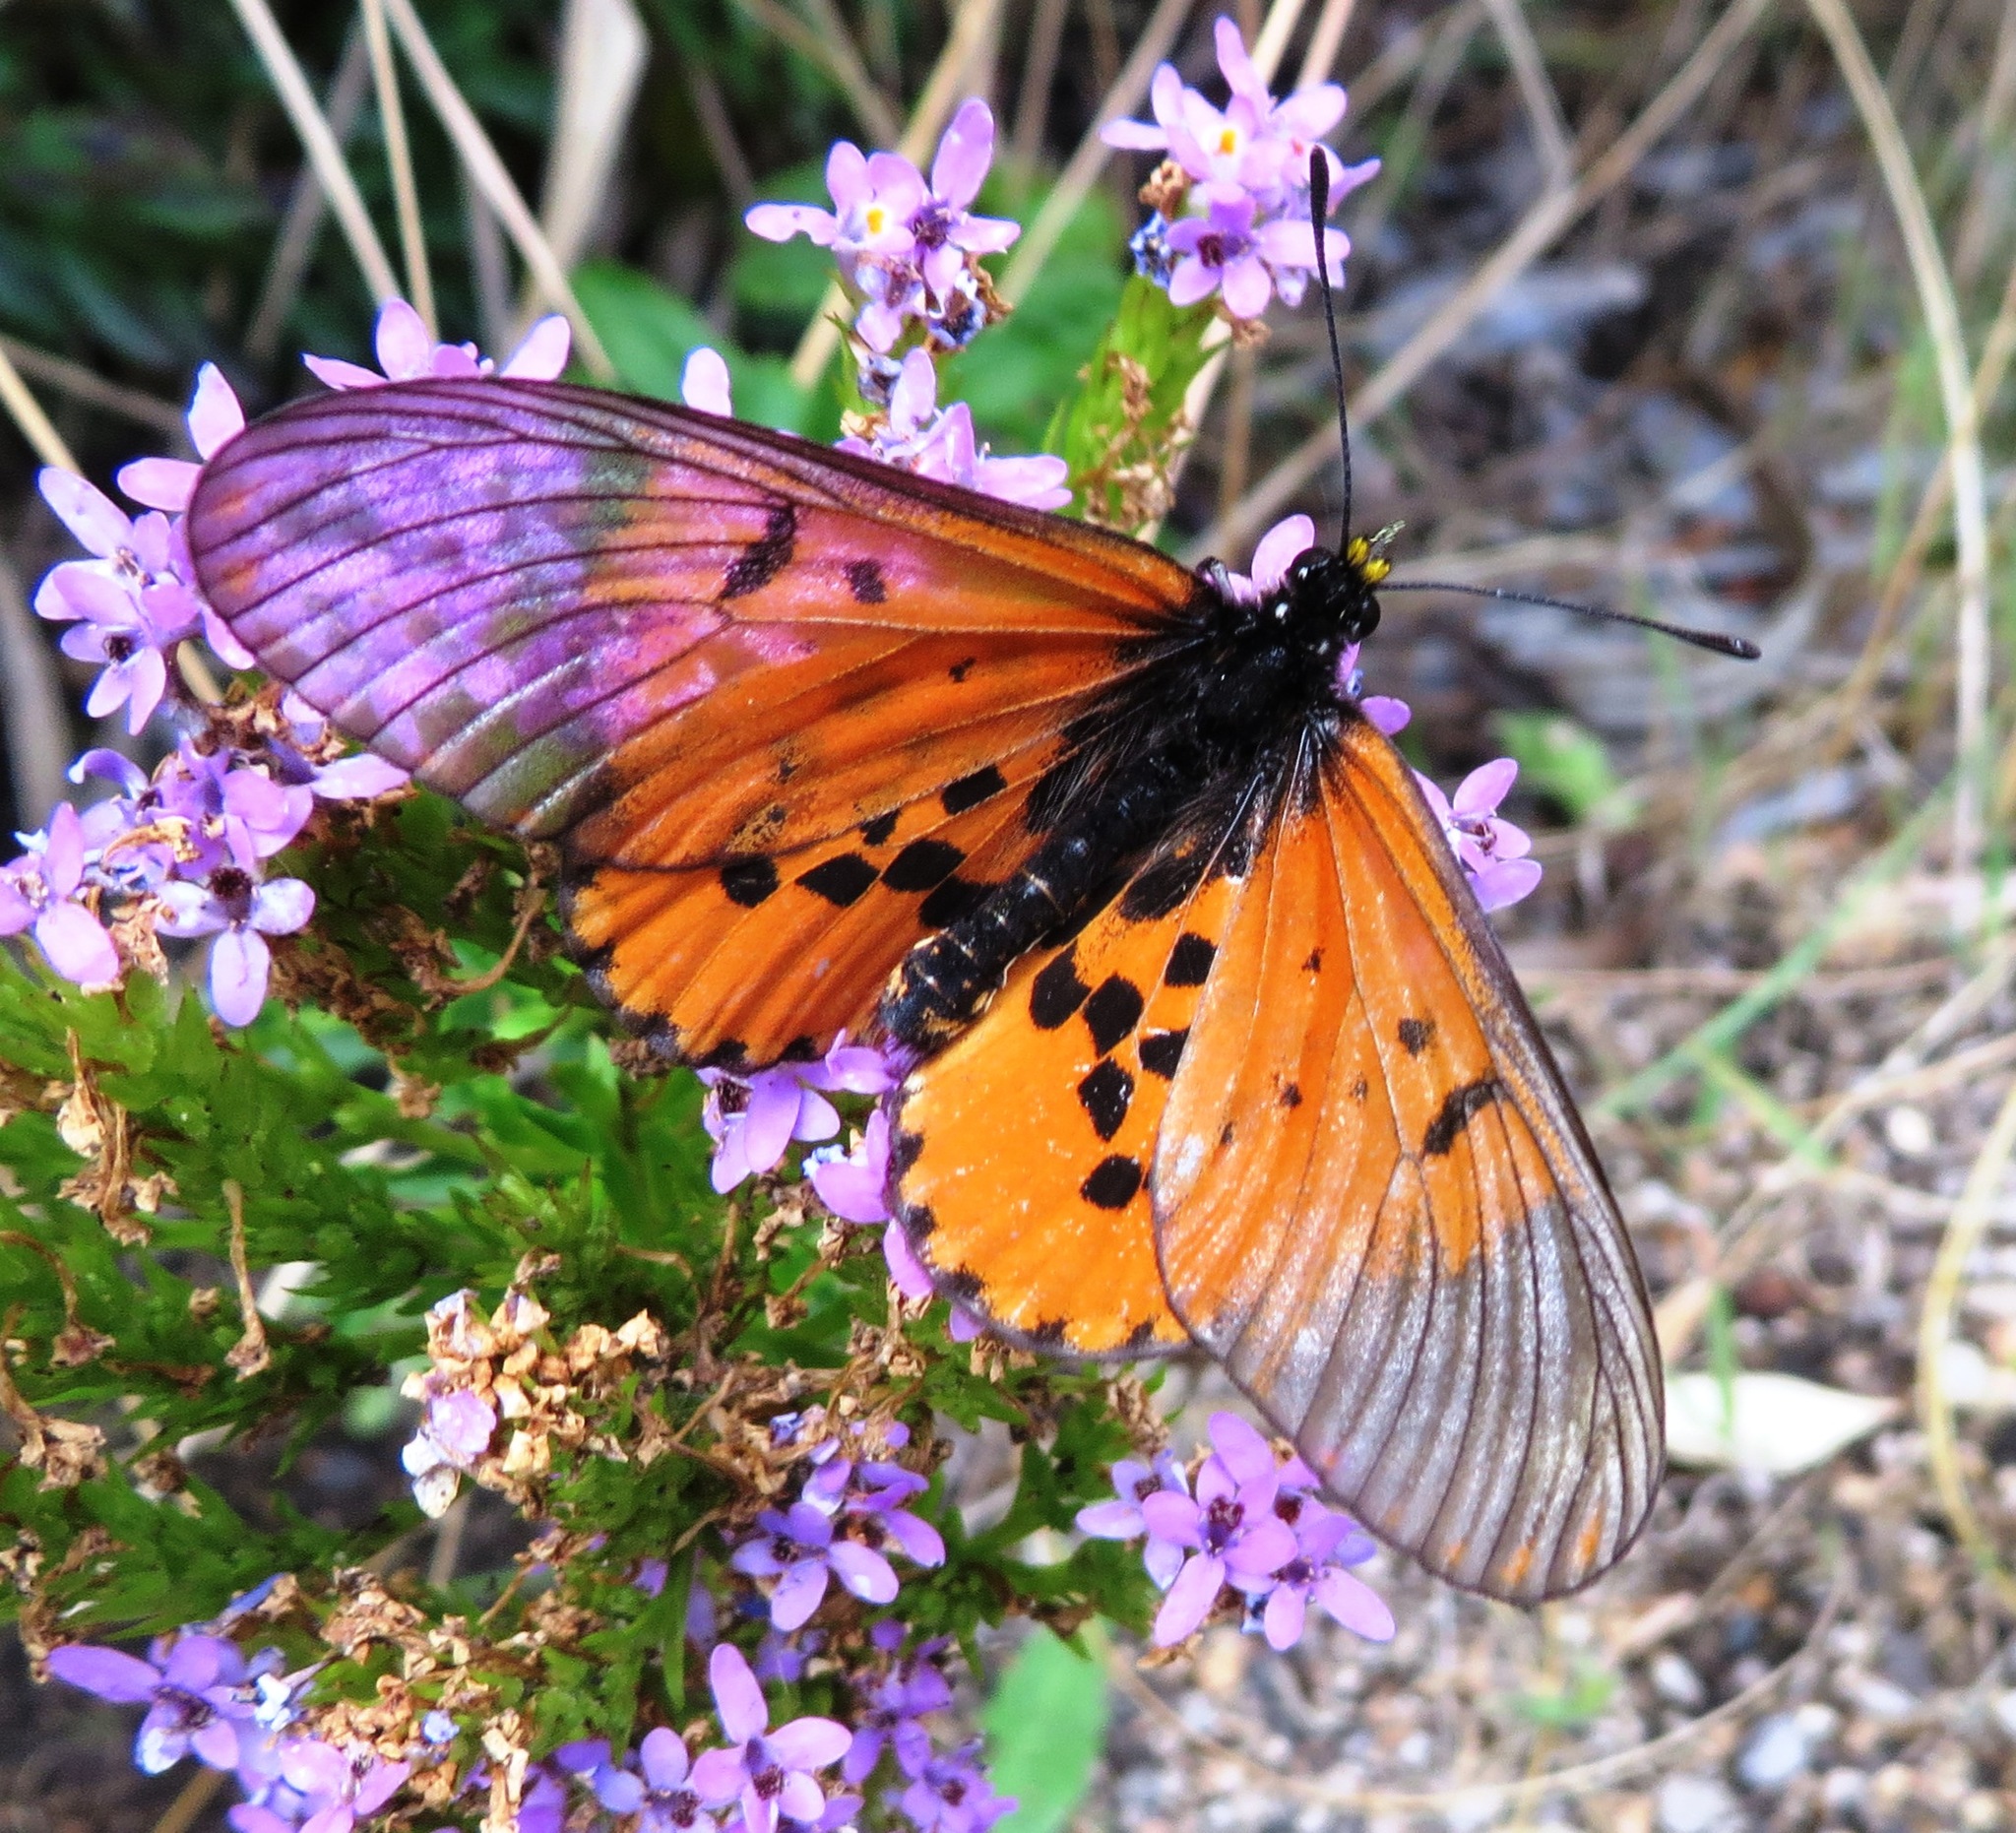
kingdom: Animalia
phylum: Arthropoda
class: Insecta
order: Lepidoptera
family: Nymphalidae
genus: Acraea
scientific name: Acraea horta
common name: Garden acraea
